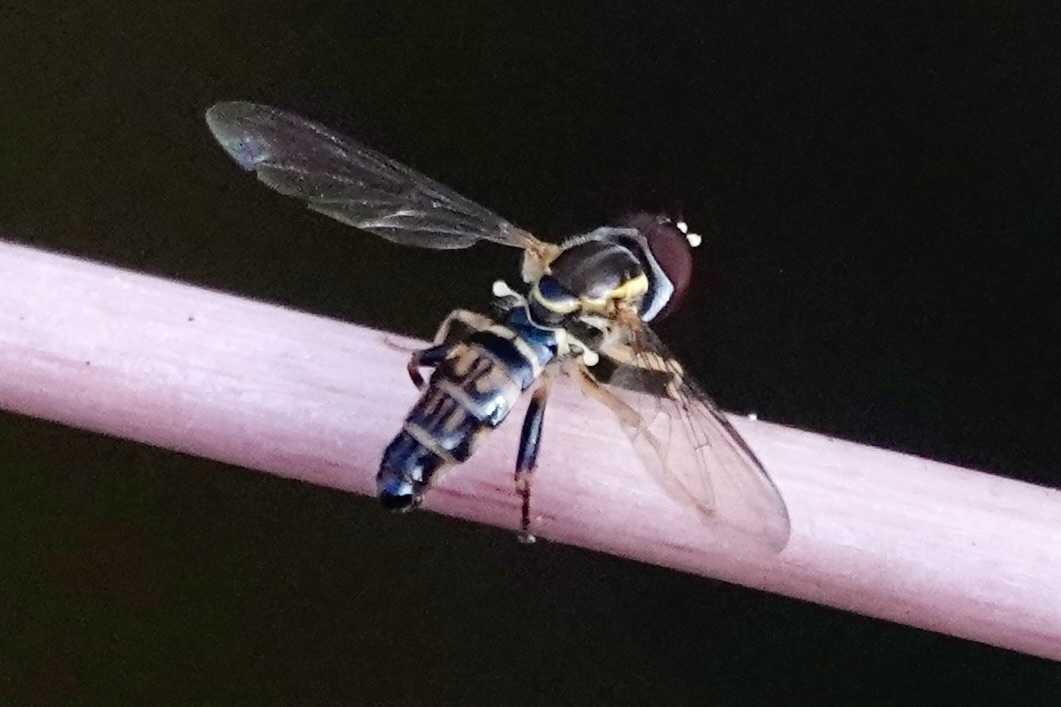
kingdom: Animalia
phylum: Arthropoda
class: Insecta
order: Diptera
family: Syrphidae
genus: Toxomerus
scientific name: Toxomerus geminatus
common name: Eastern calligrapher
